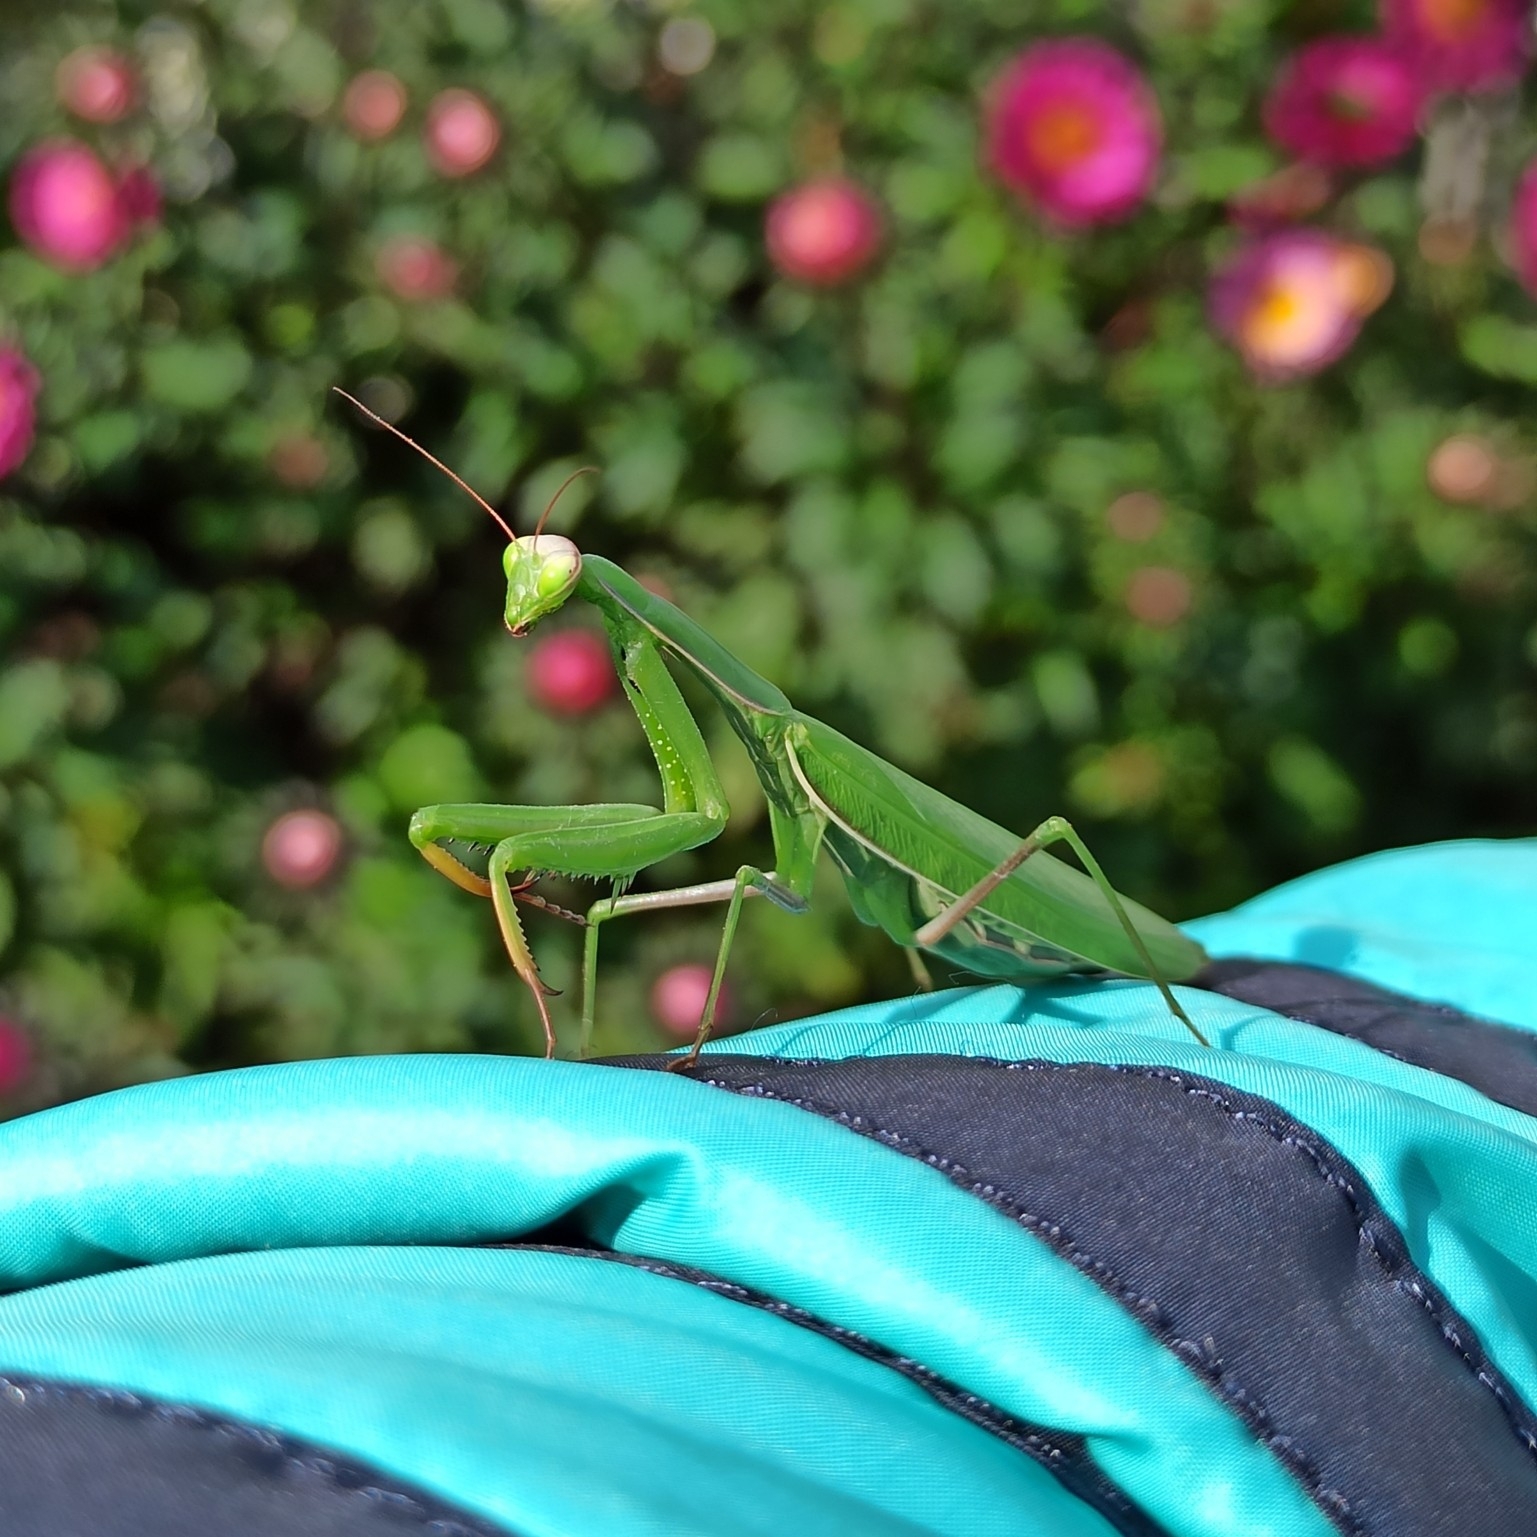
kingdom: Animalia
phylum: Arthropoda
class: Insecta
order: Mantodea
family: Mantidae
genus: Mantis
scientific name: Mantis religiosa
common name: Praying mantis
